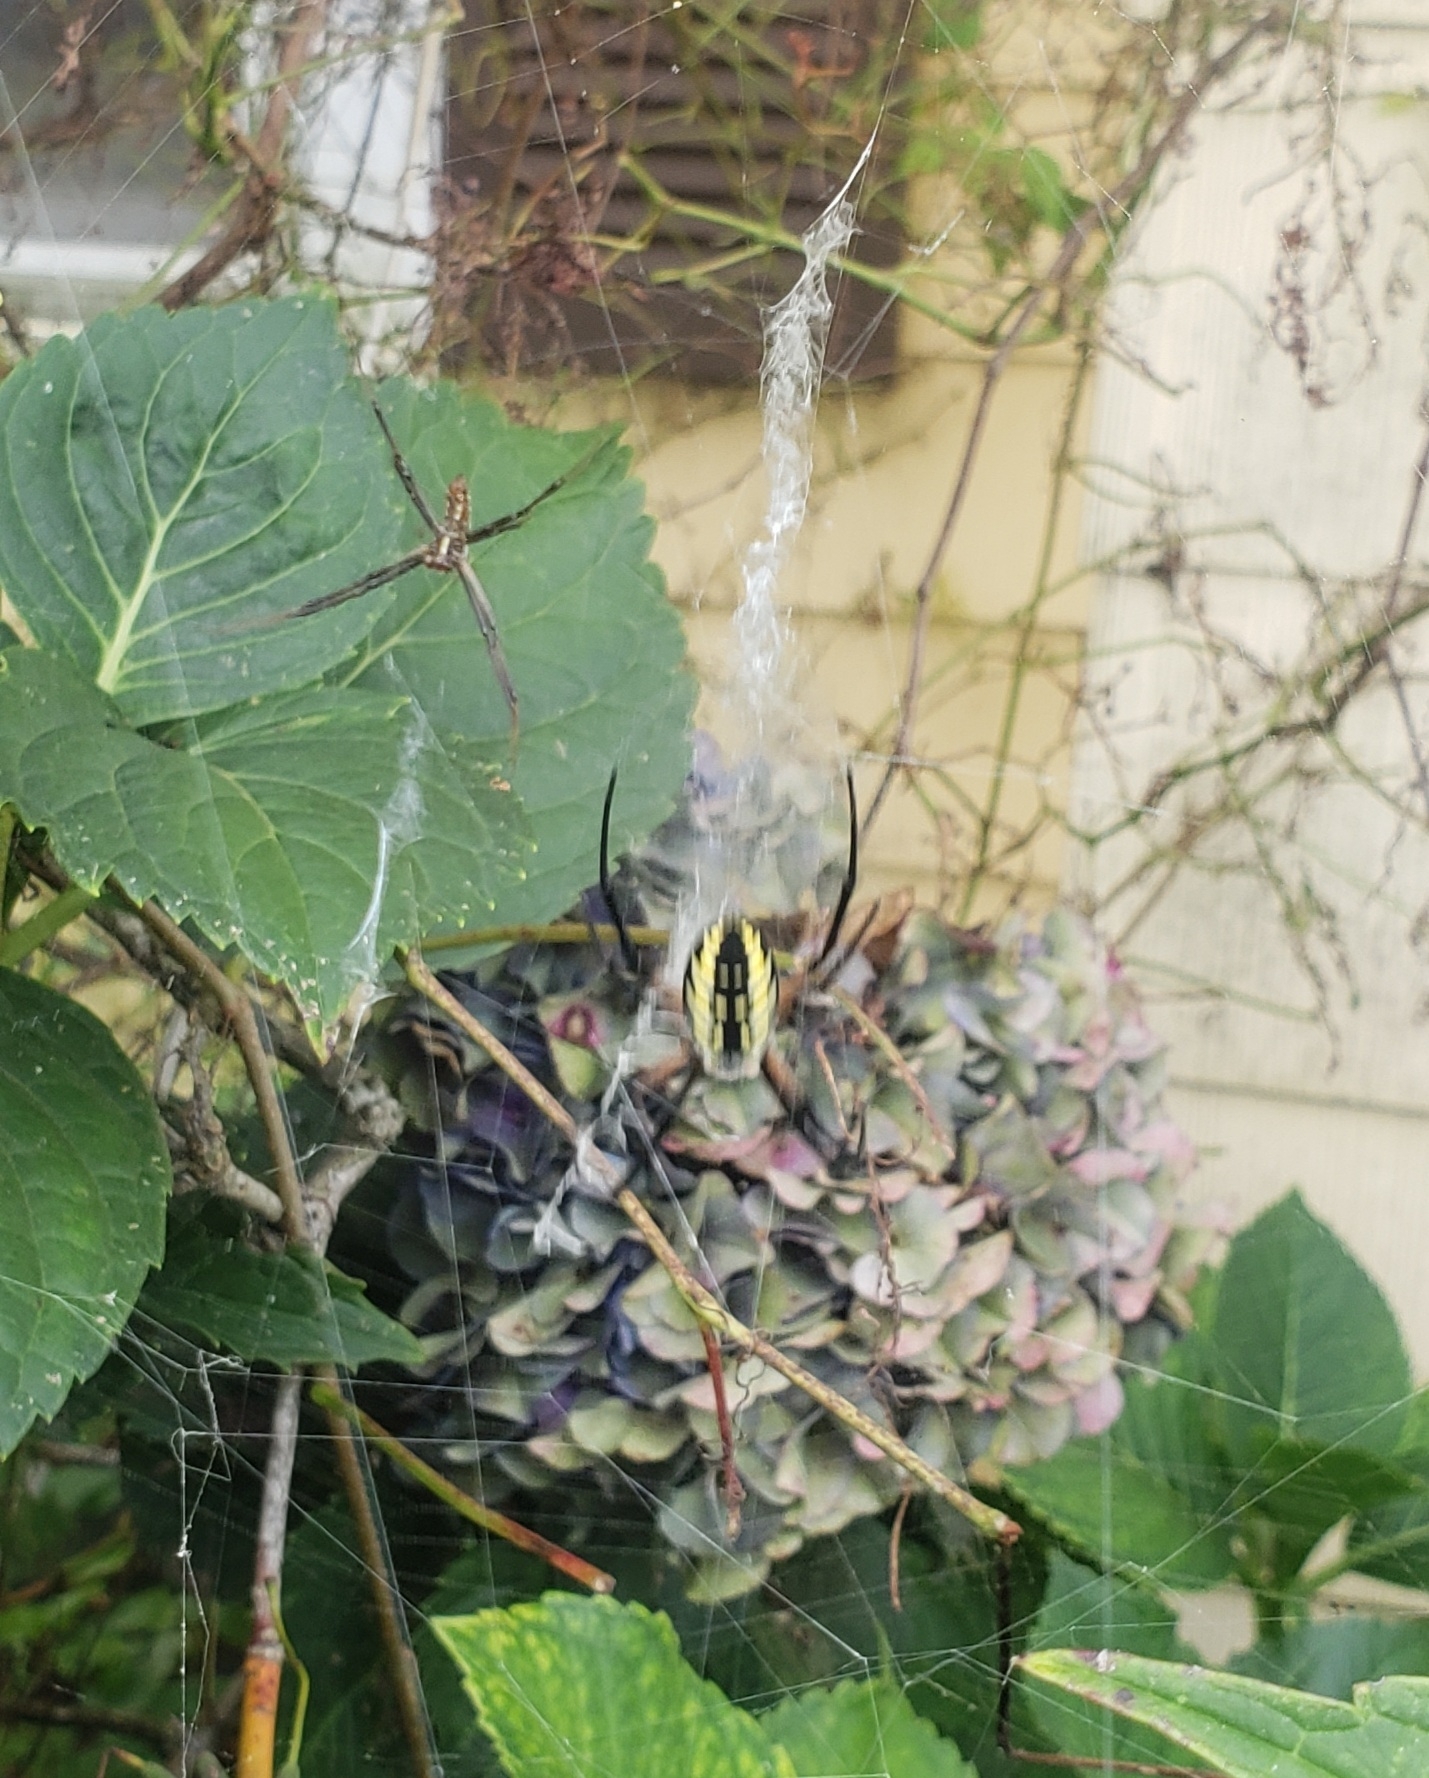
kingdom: Animalia
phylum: Arthropoda
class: Arachnida
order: Araneae
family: Araneidae
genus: Argiope
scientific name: Argiope aurantia
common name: Orb weavers
